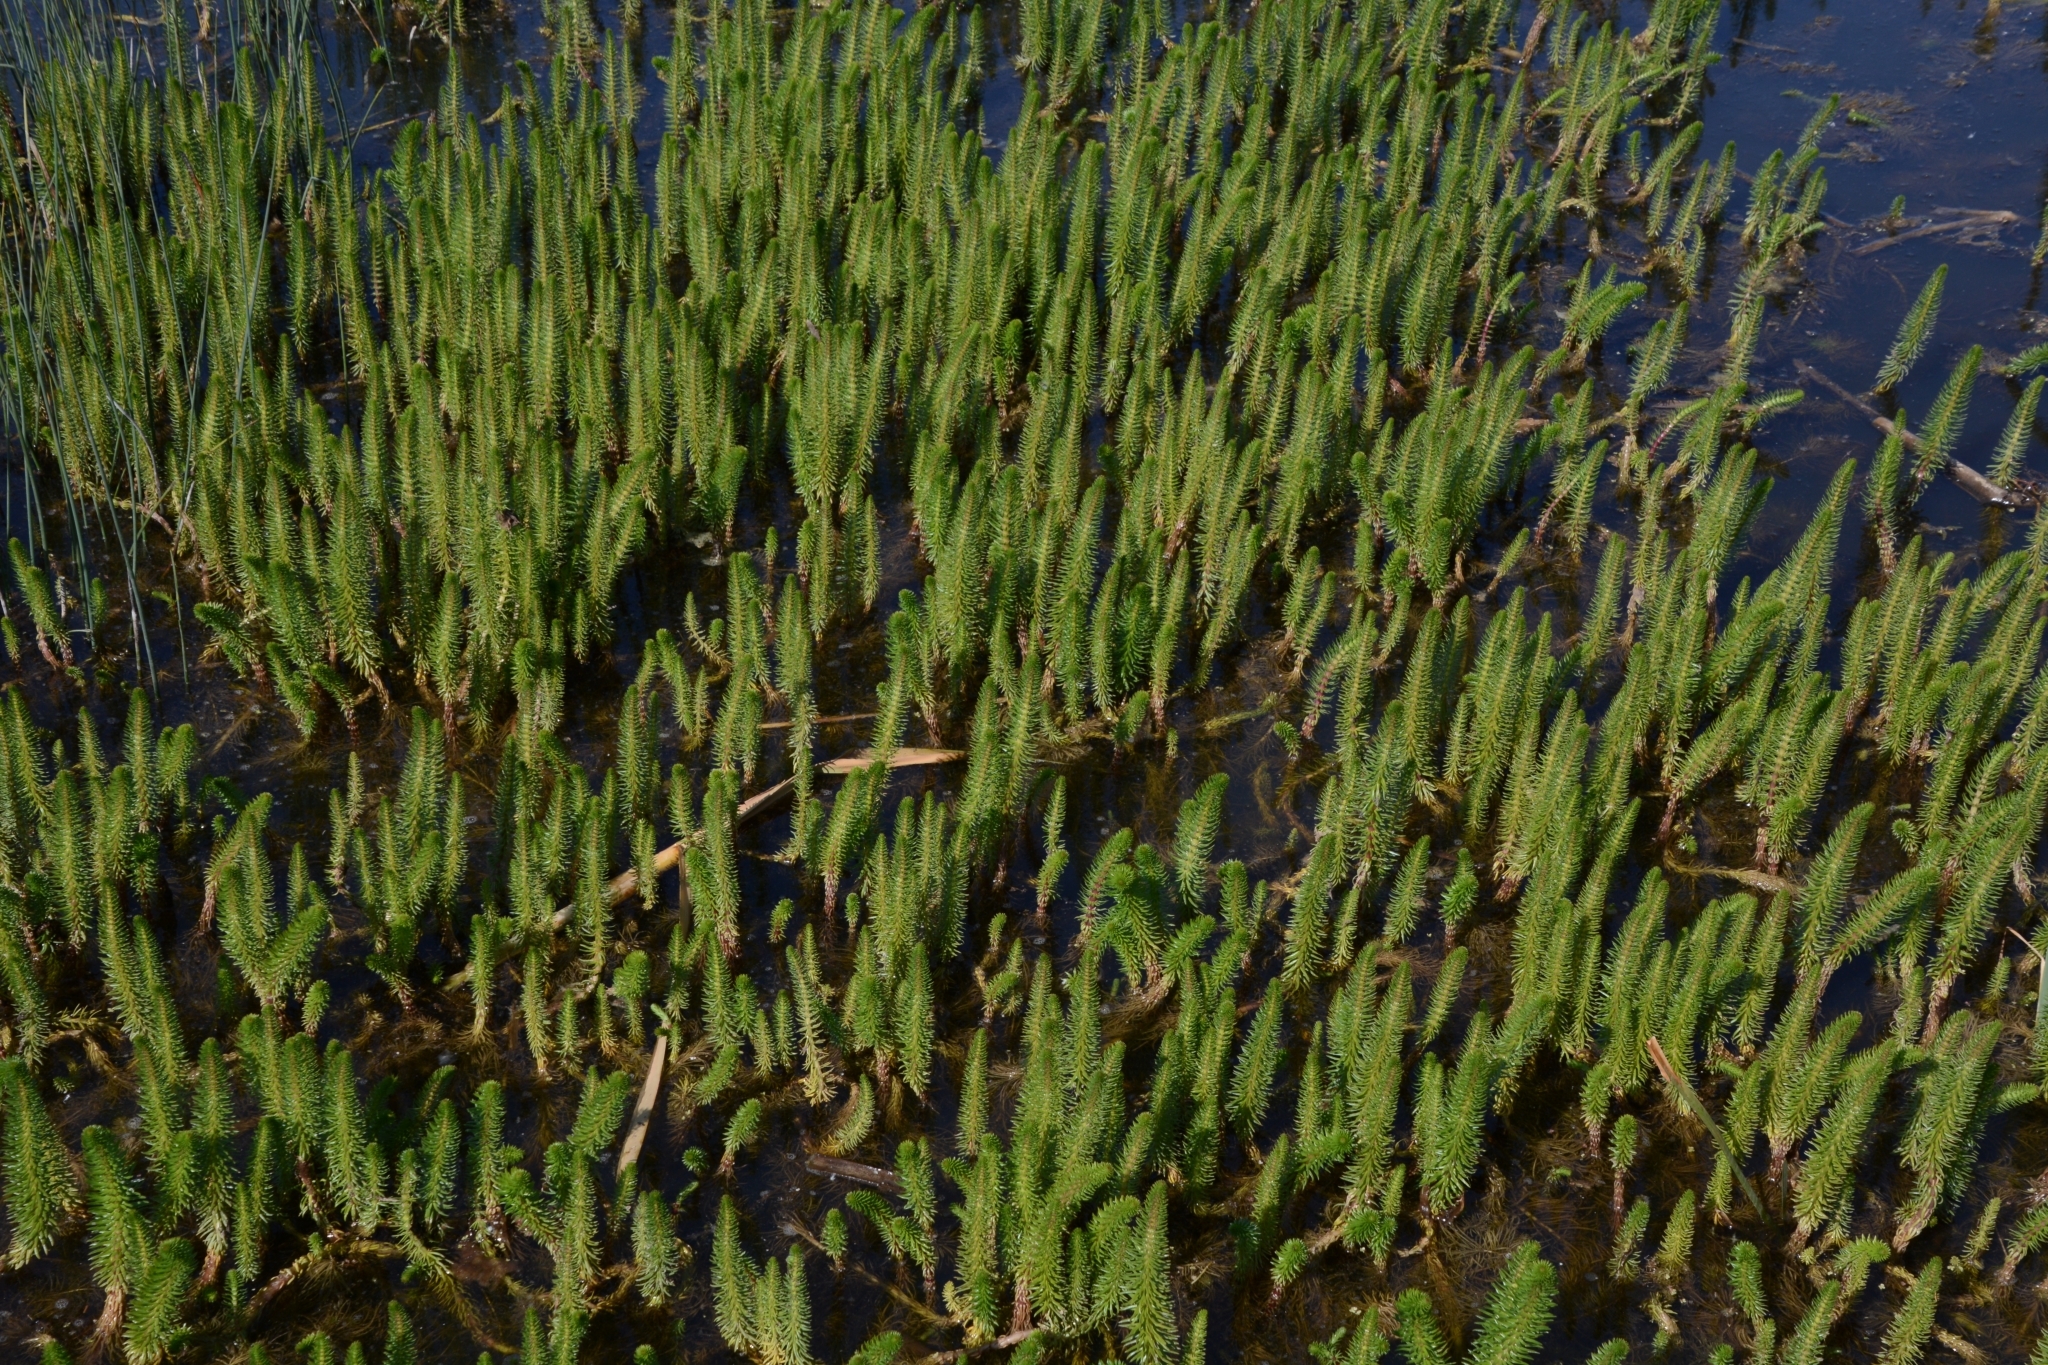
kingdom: Plantae
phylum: Tracheophyta
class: Magnoliopsida
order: Lamiales
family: Plantaginaceae
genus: Hippuris
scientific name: Hippuris vulgaris
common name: Mare's-tail
